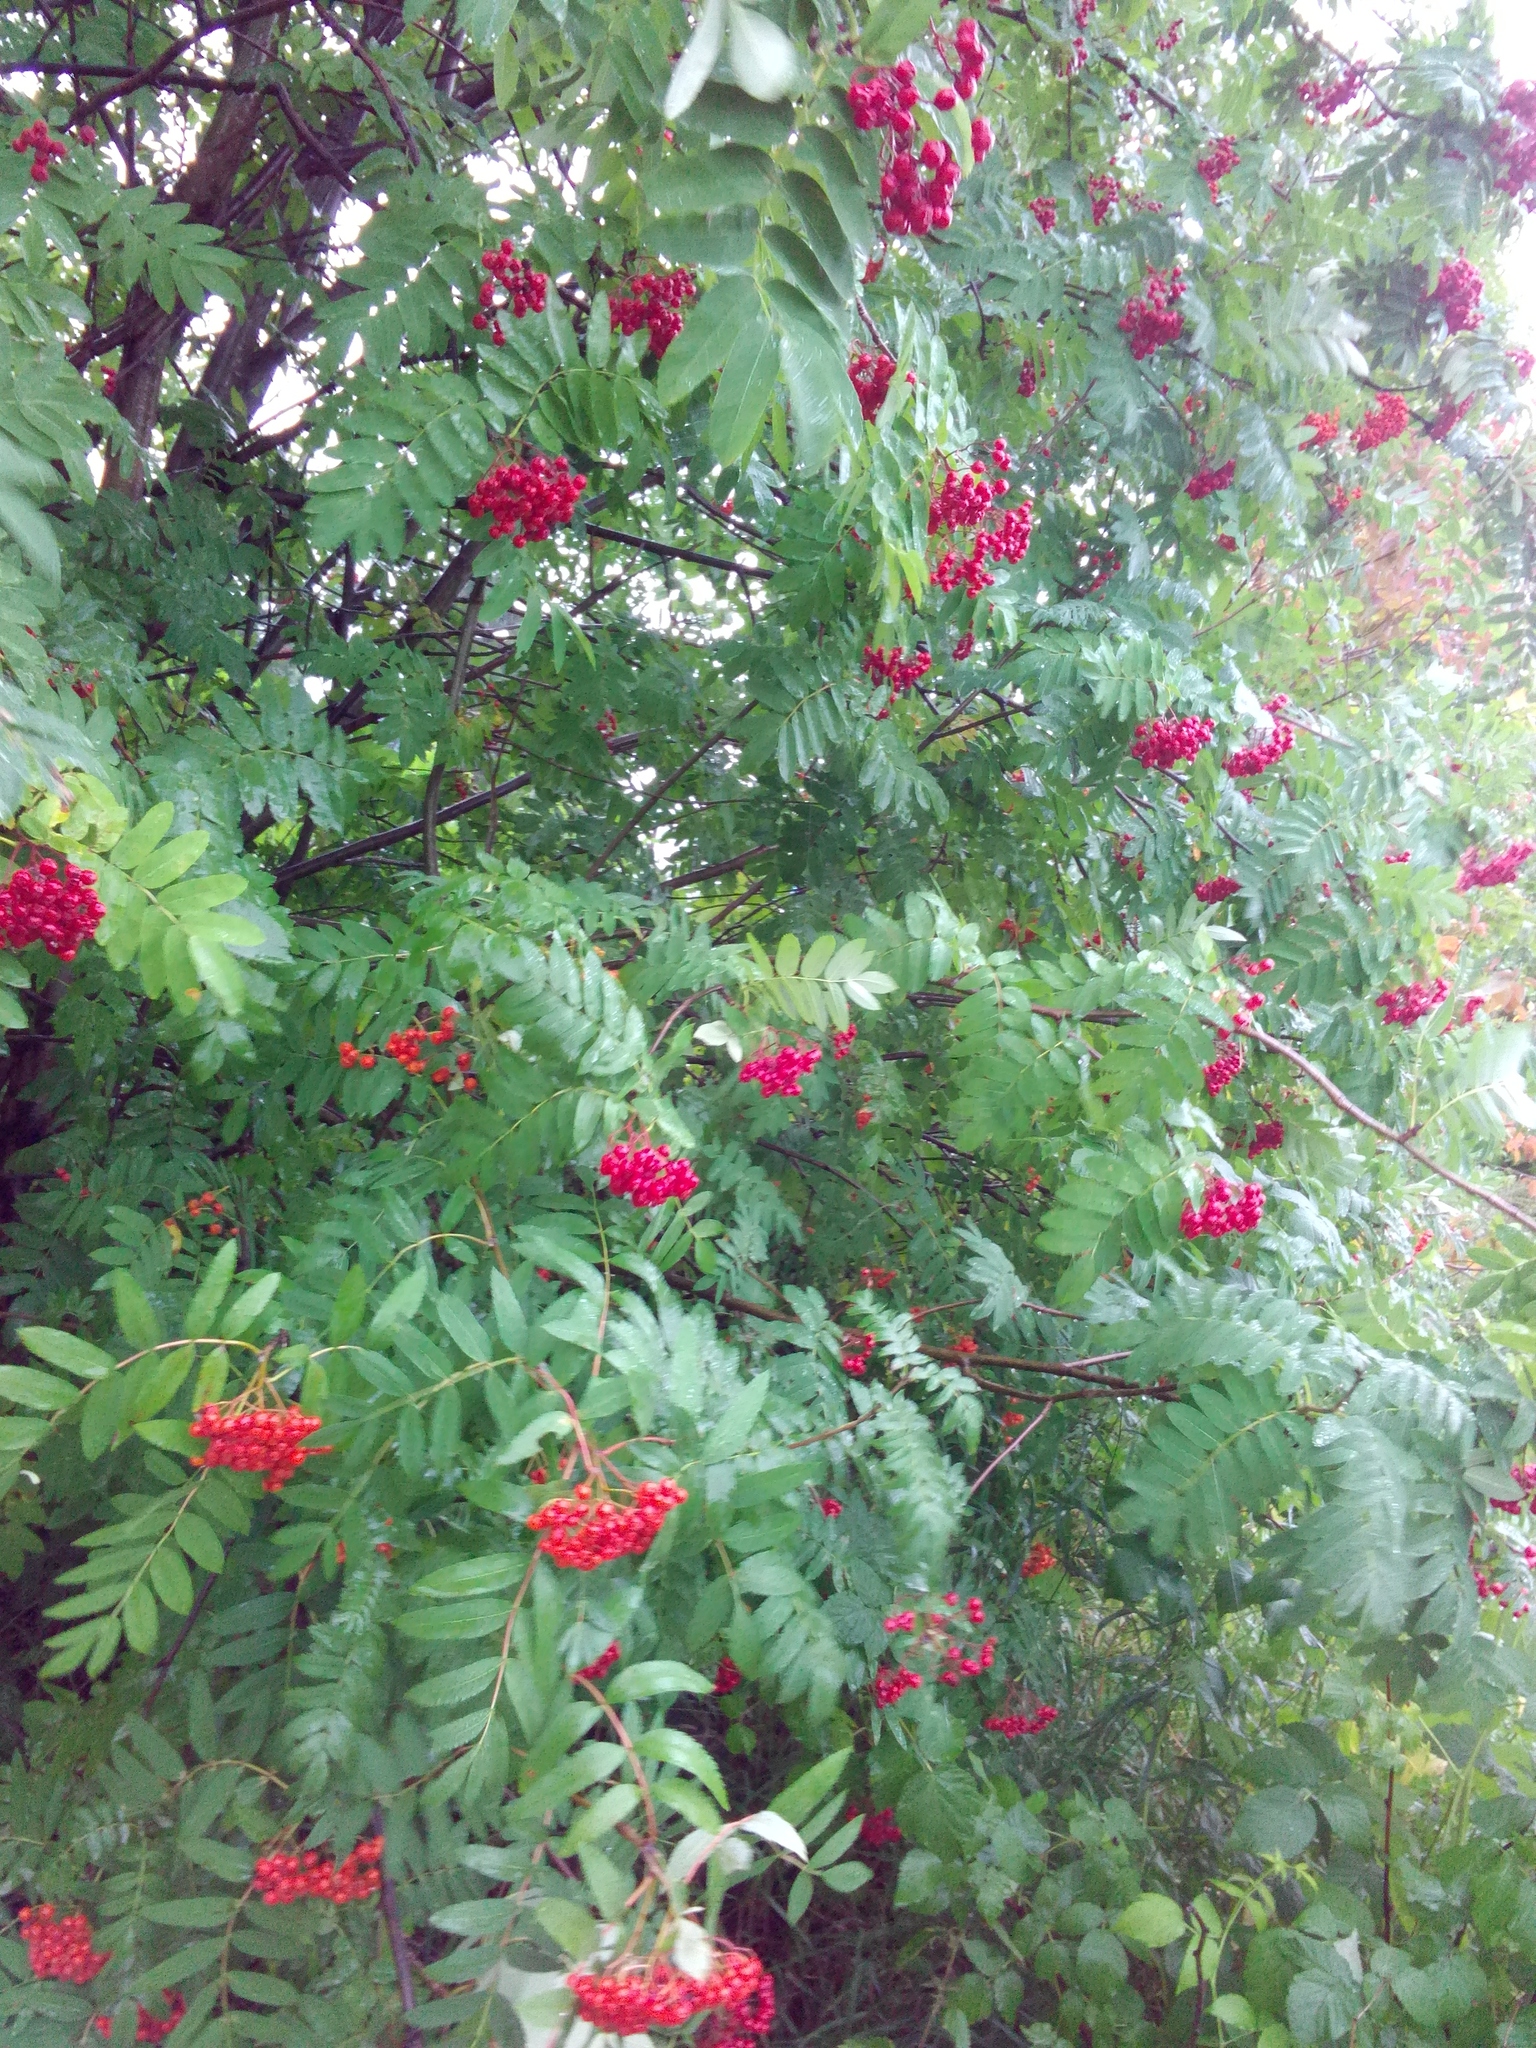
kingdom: Plantae
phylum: Tracheophyta
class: Magnoliopsida
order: Rosales
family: Rosaceae
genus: Sorbus
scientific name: Sorbus aucuparia
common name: Rowan
